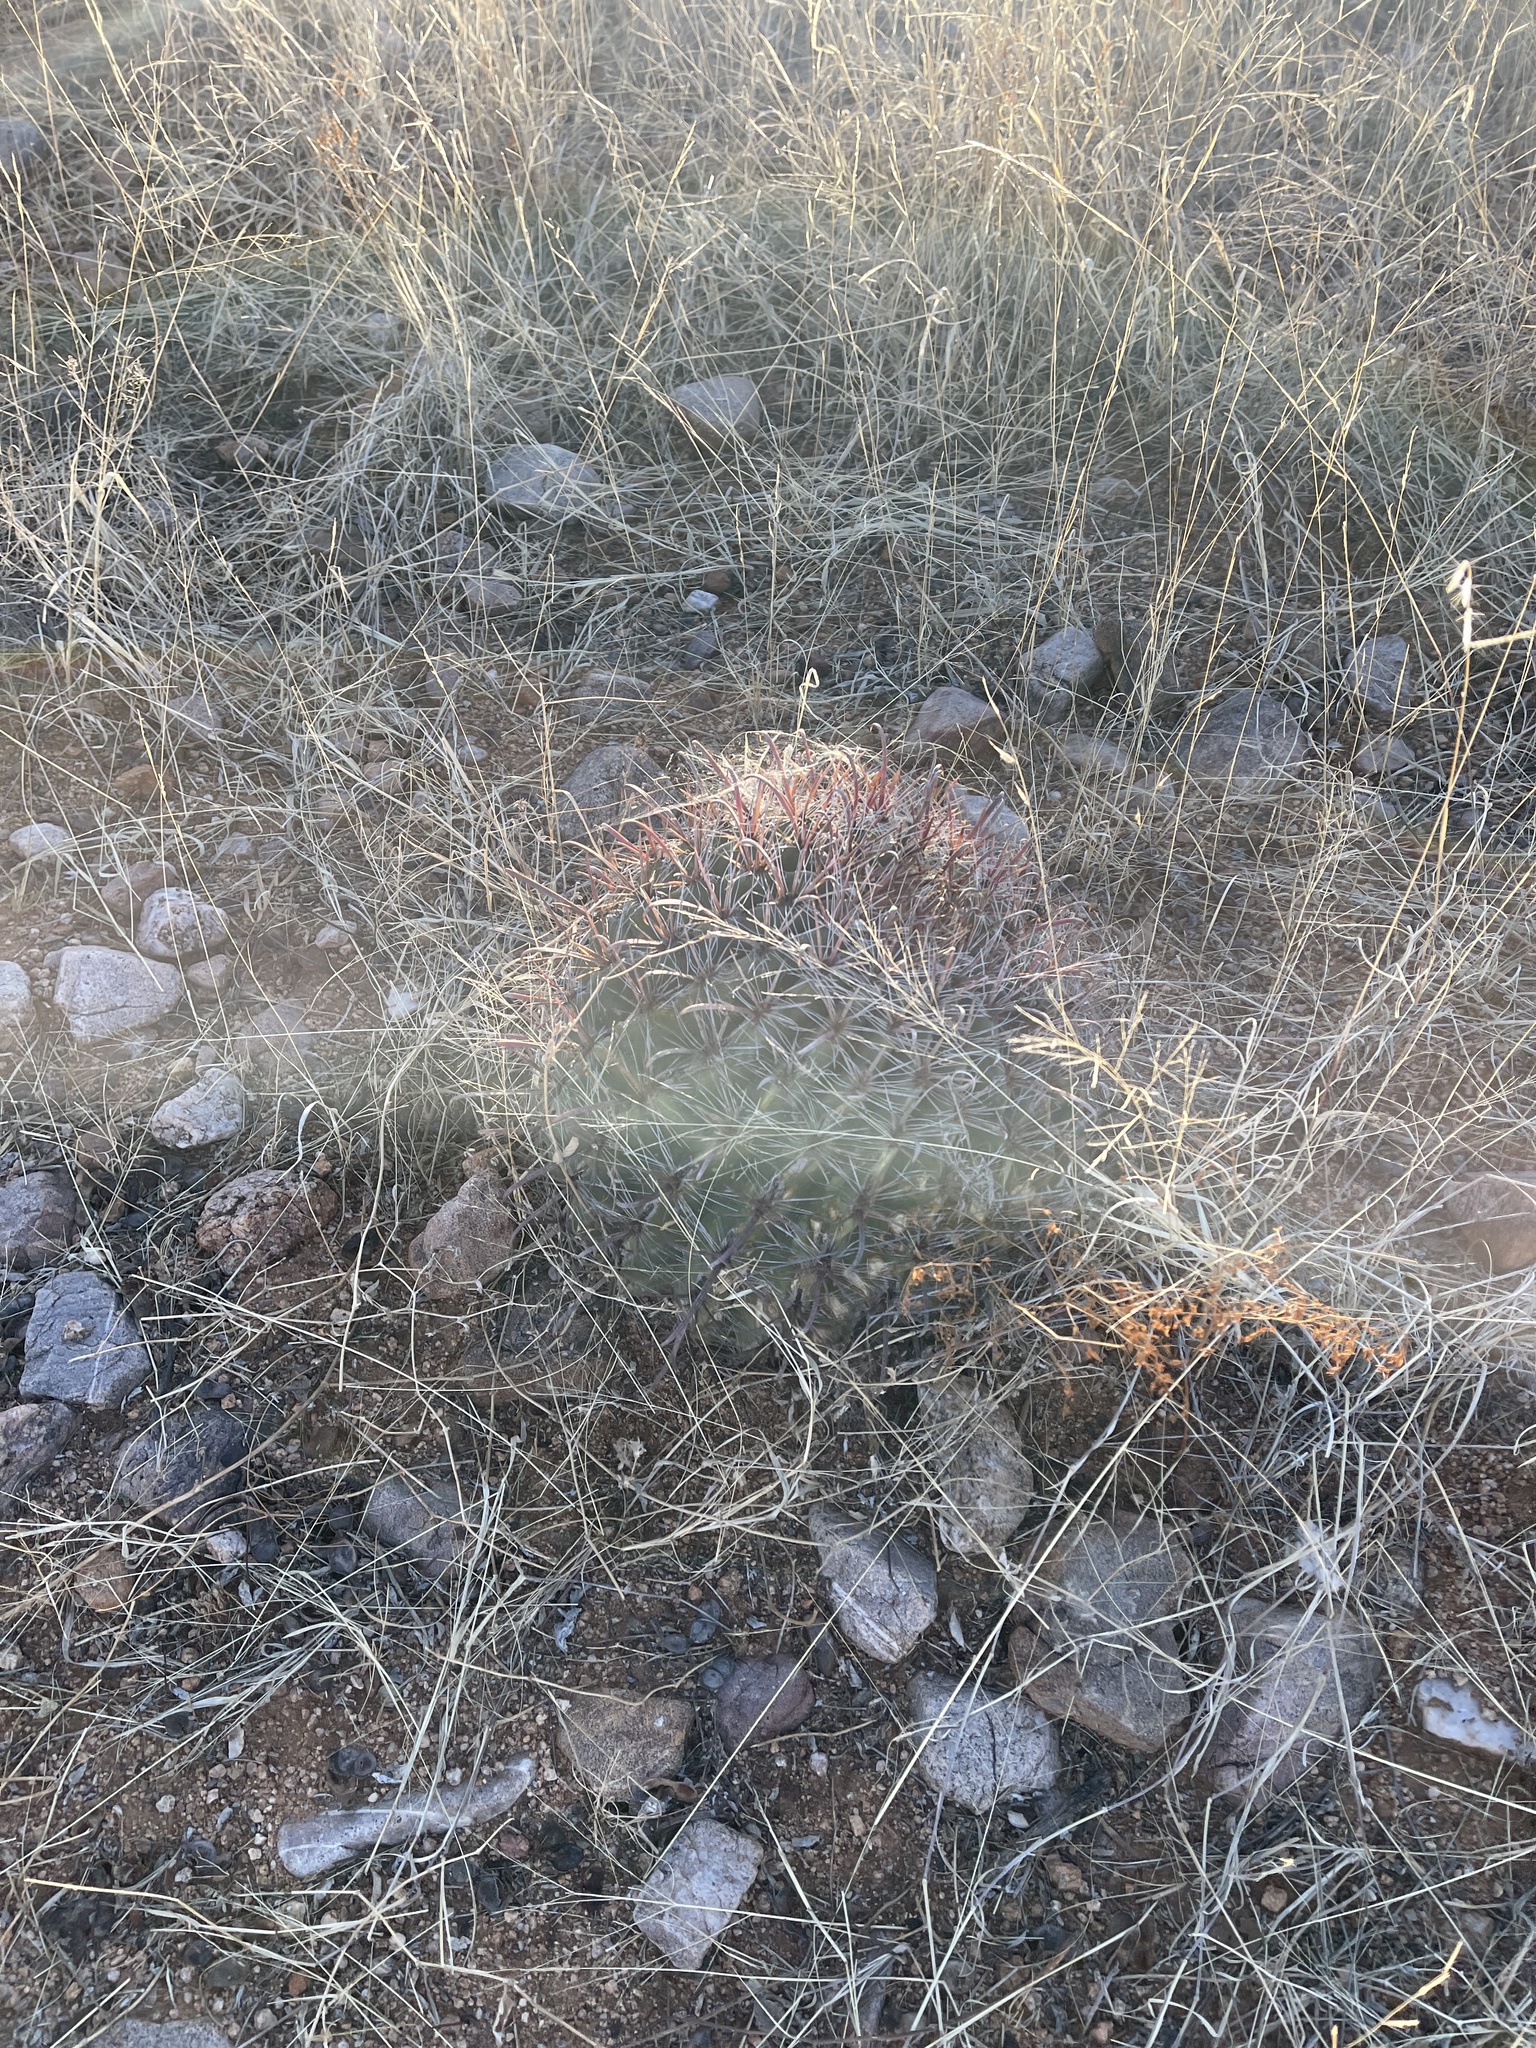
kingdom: Plantae
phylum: Tracheophyta
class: Magnoliopsida
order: Caryophyllales
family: Cactaceae
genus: Ferocactus
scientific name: Ferocactus wislizeni
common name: Candy barrel cactus
